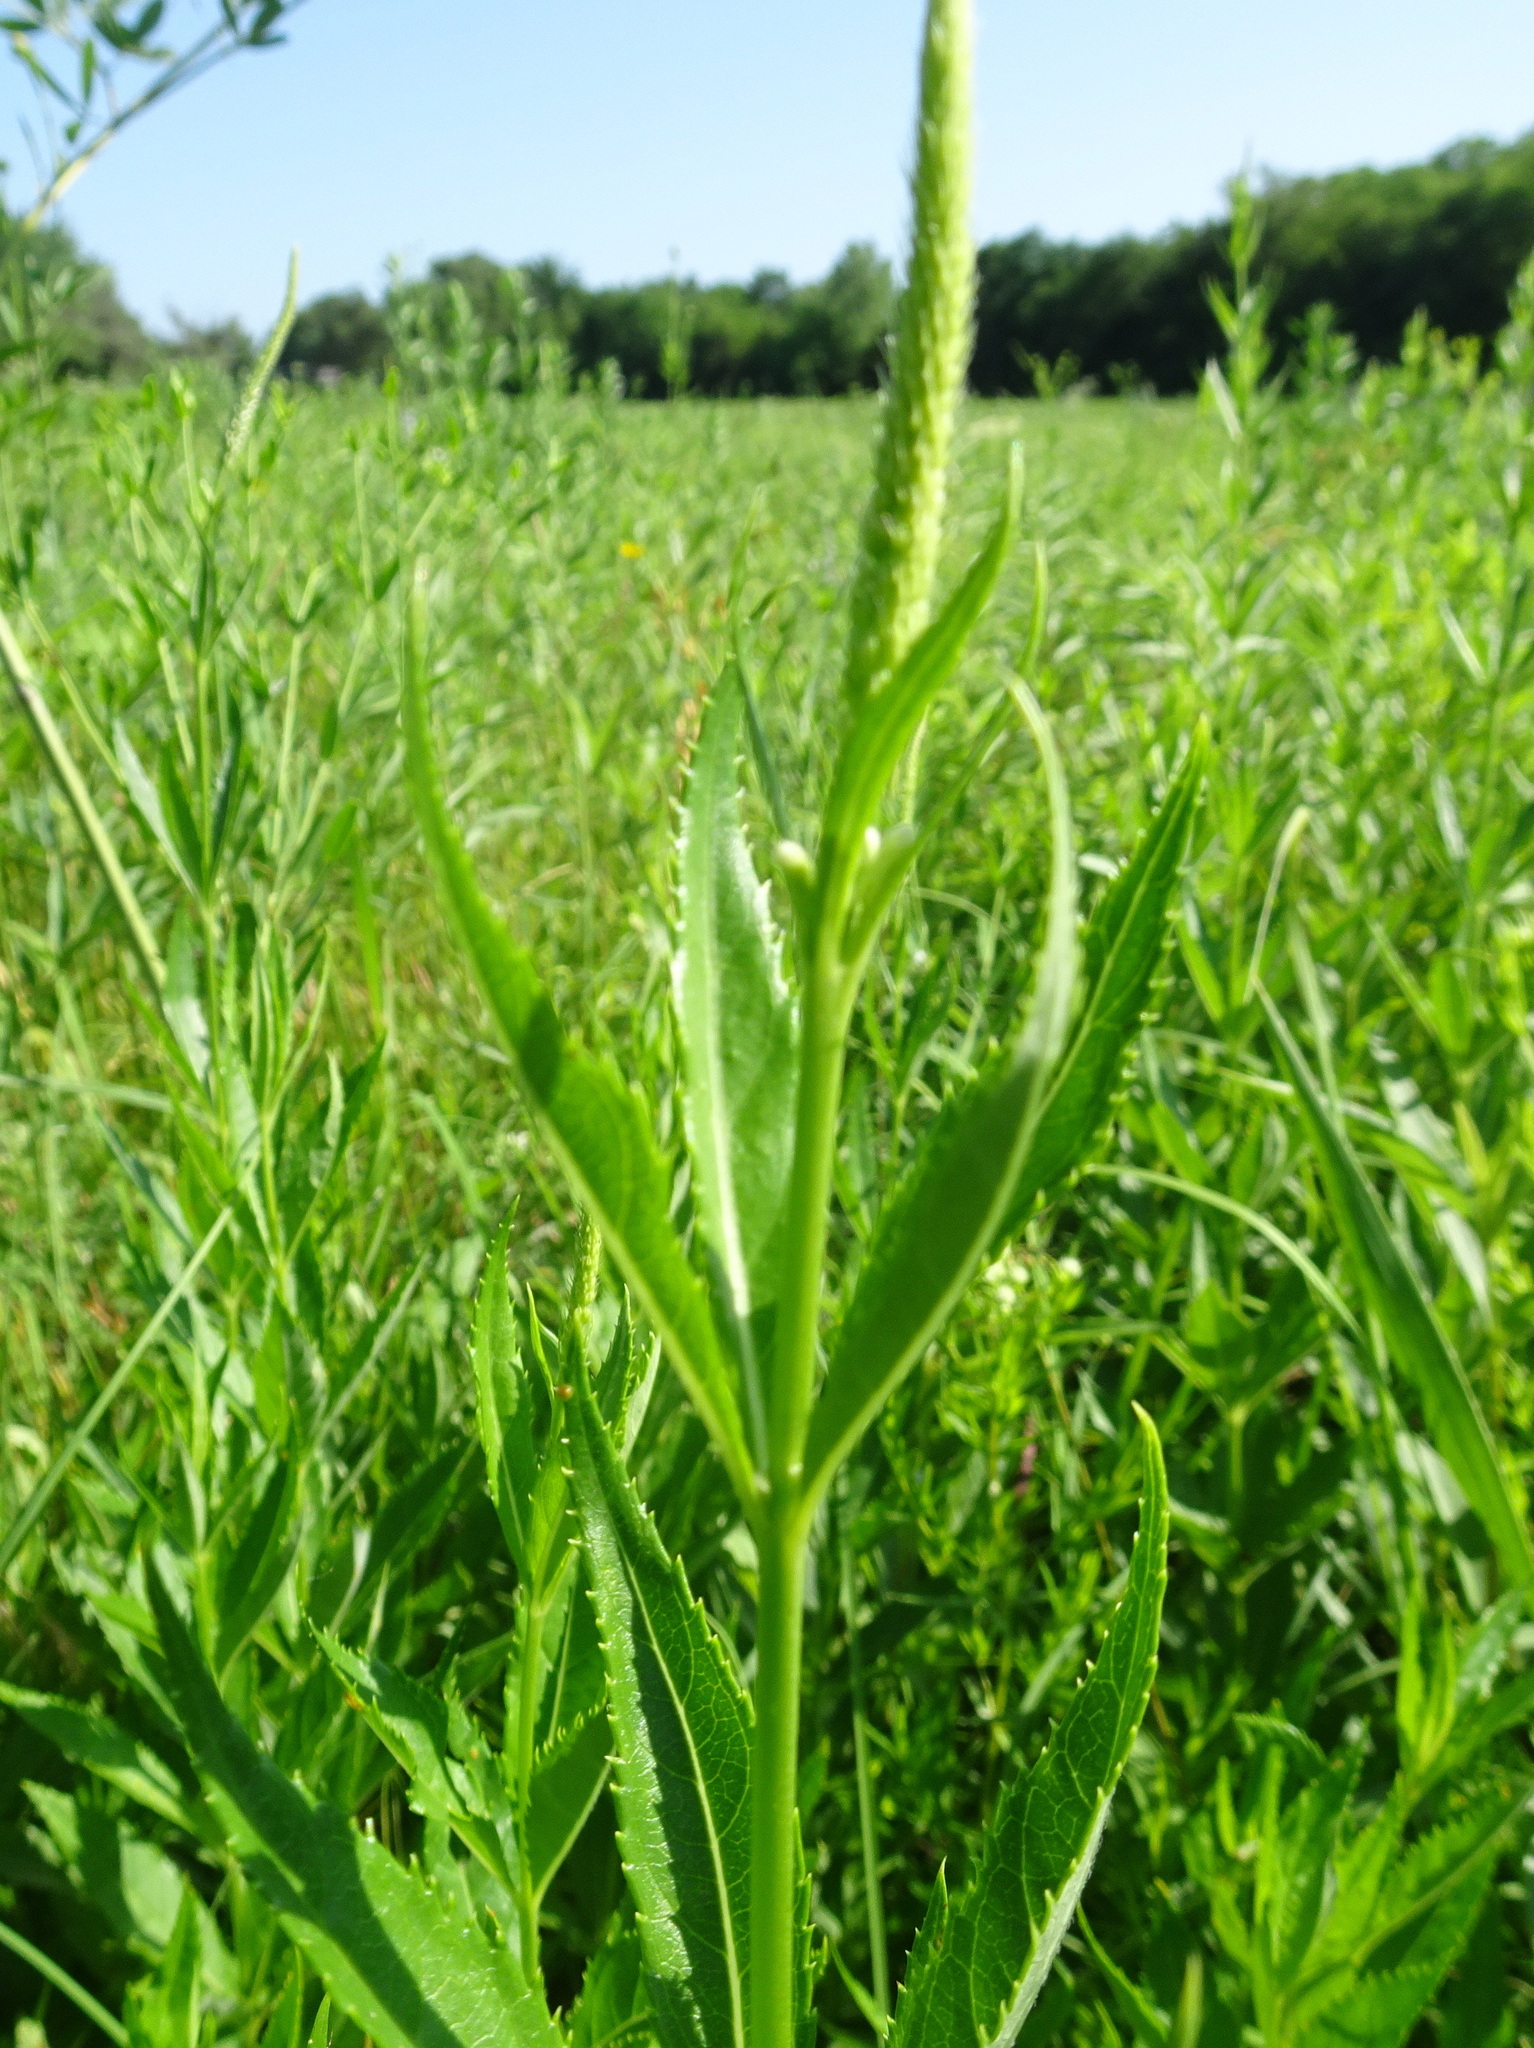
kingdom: Plantae
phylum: Tracheophyta
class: Magnoliopsida
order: Lamiales
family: Plantaginaceae
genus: Veronicastrum
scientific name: Veronicastrum virginicum
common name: Blackroot
